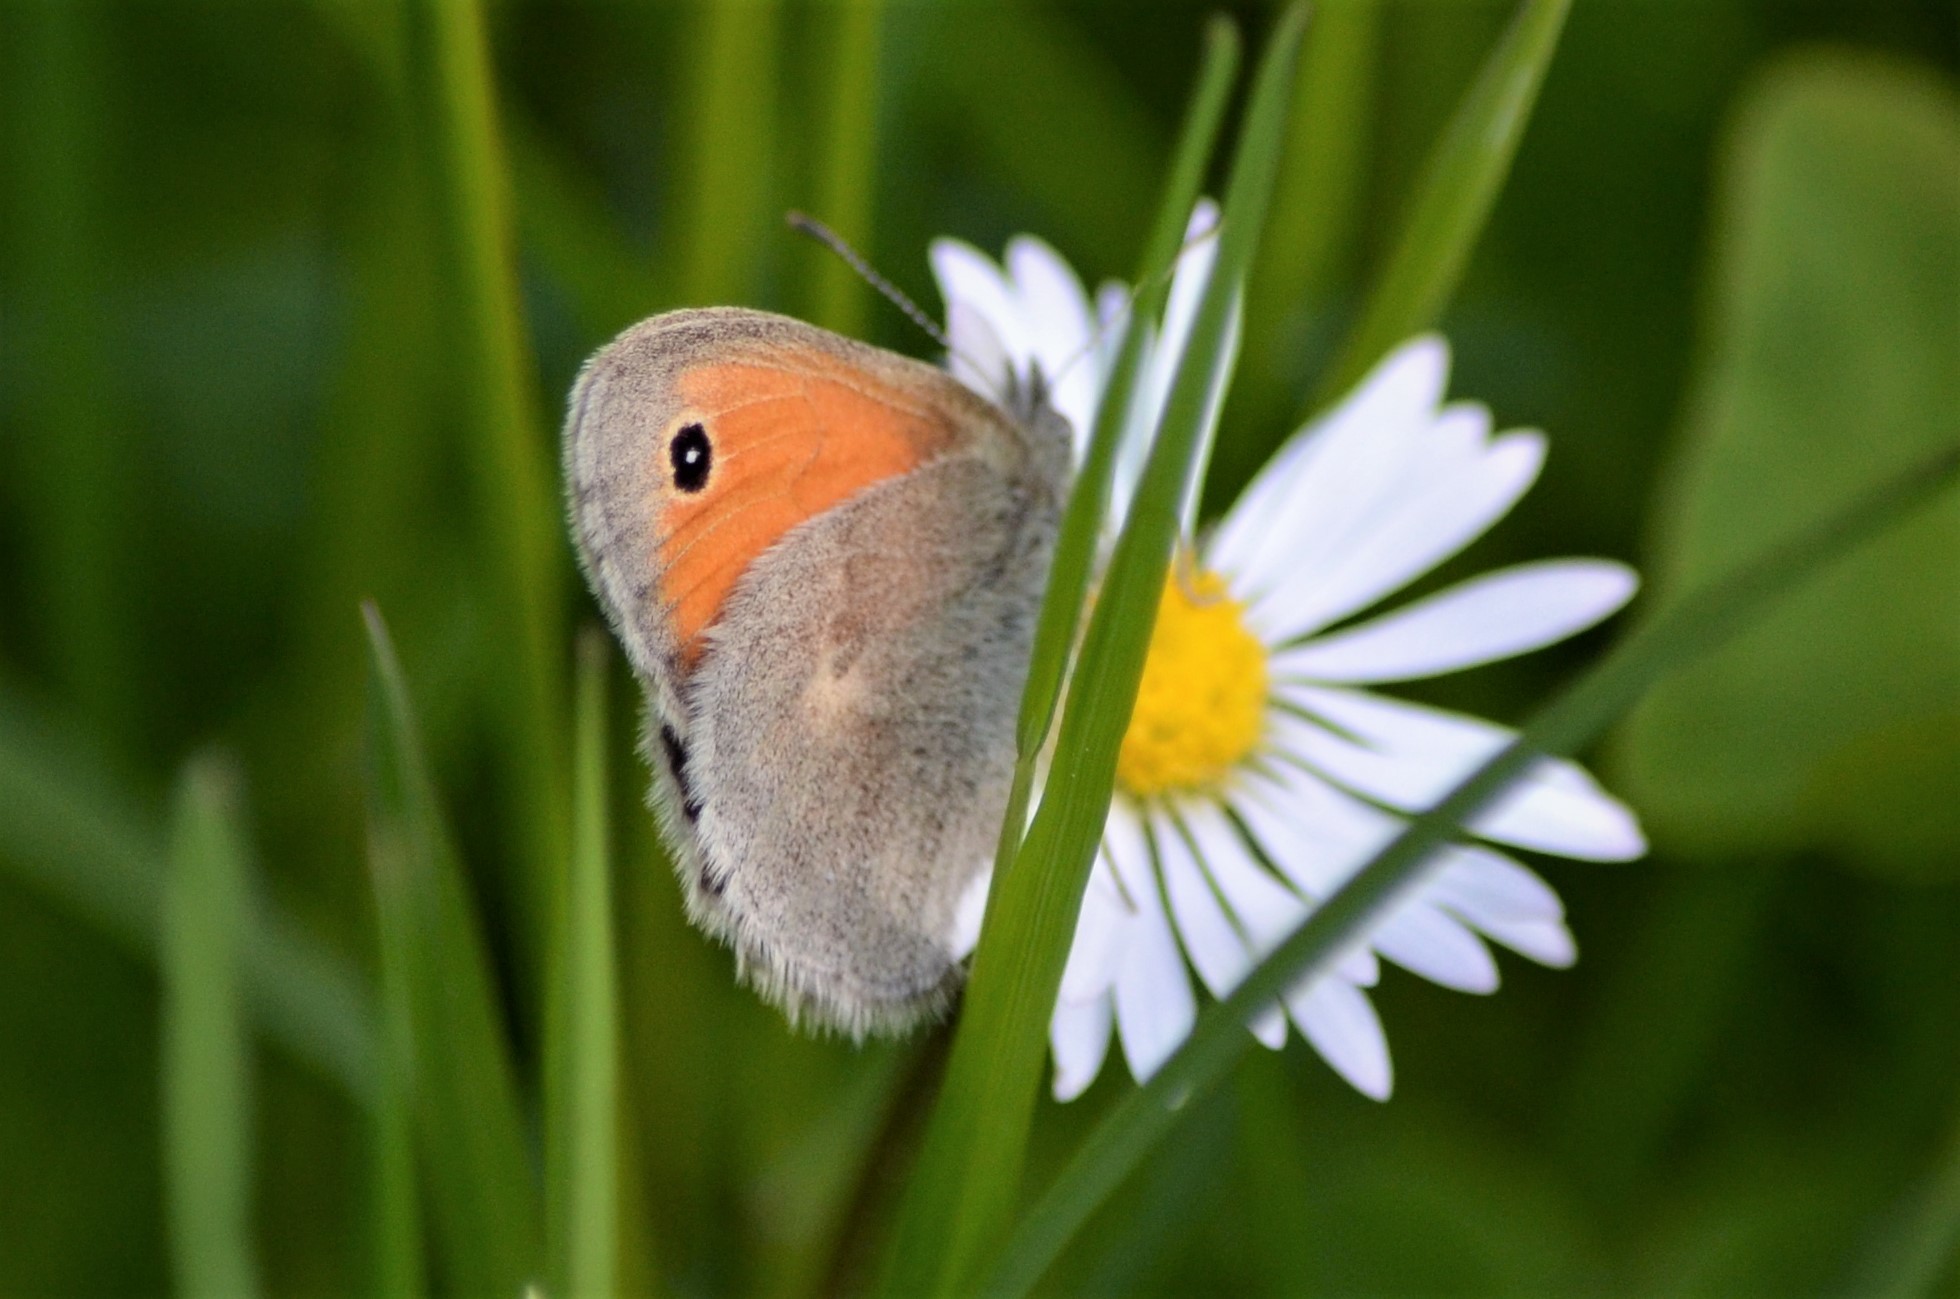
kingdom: Animalia
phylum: Arthropoda
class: Insecta
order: Lepidoptera
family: Nymphalidae
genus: Coenonympha
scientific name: Coenonympha pamphilus
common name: Small heath
